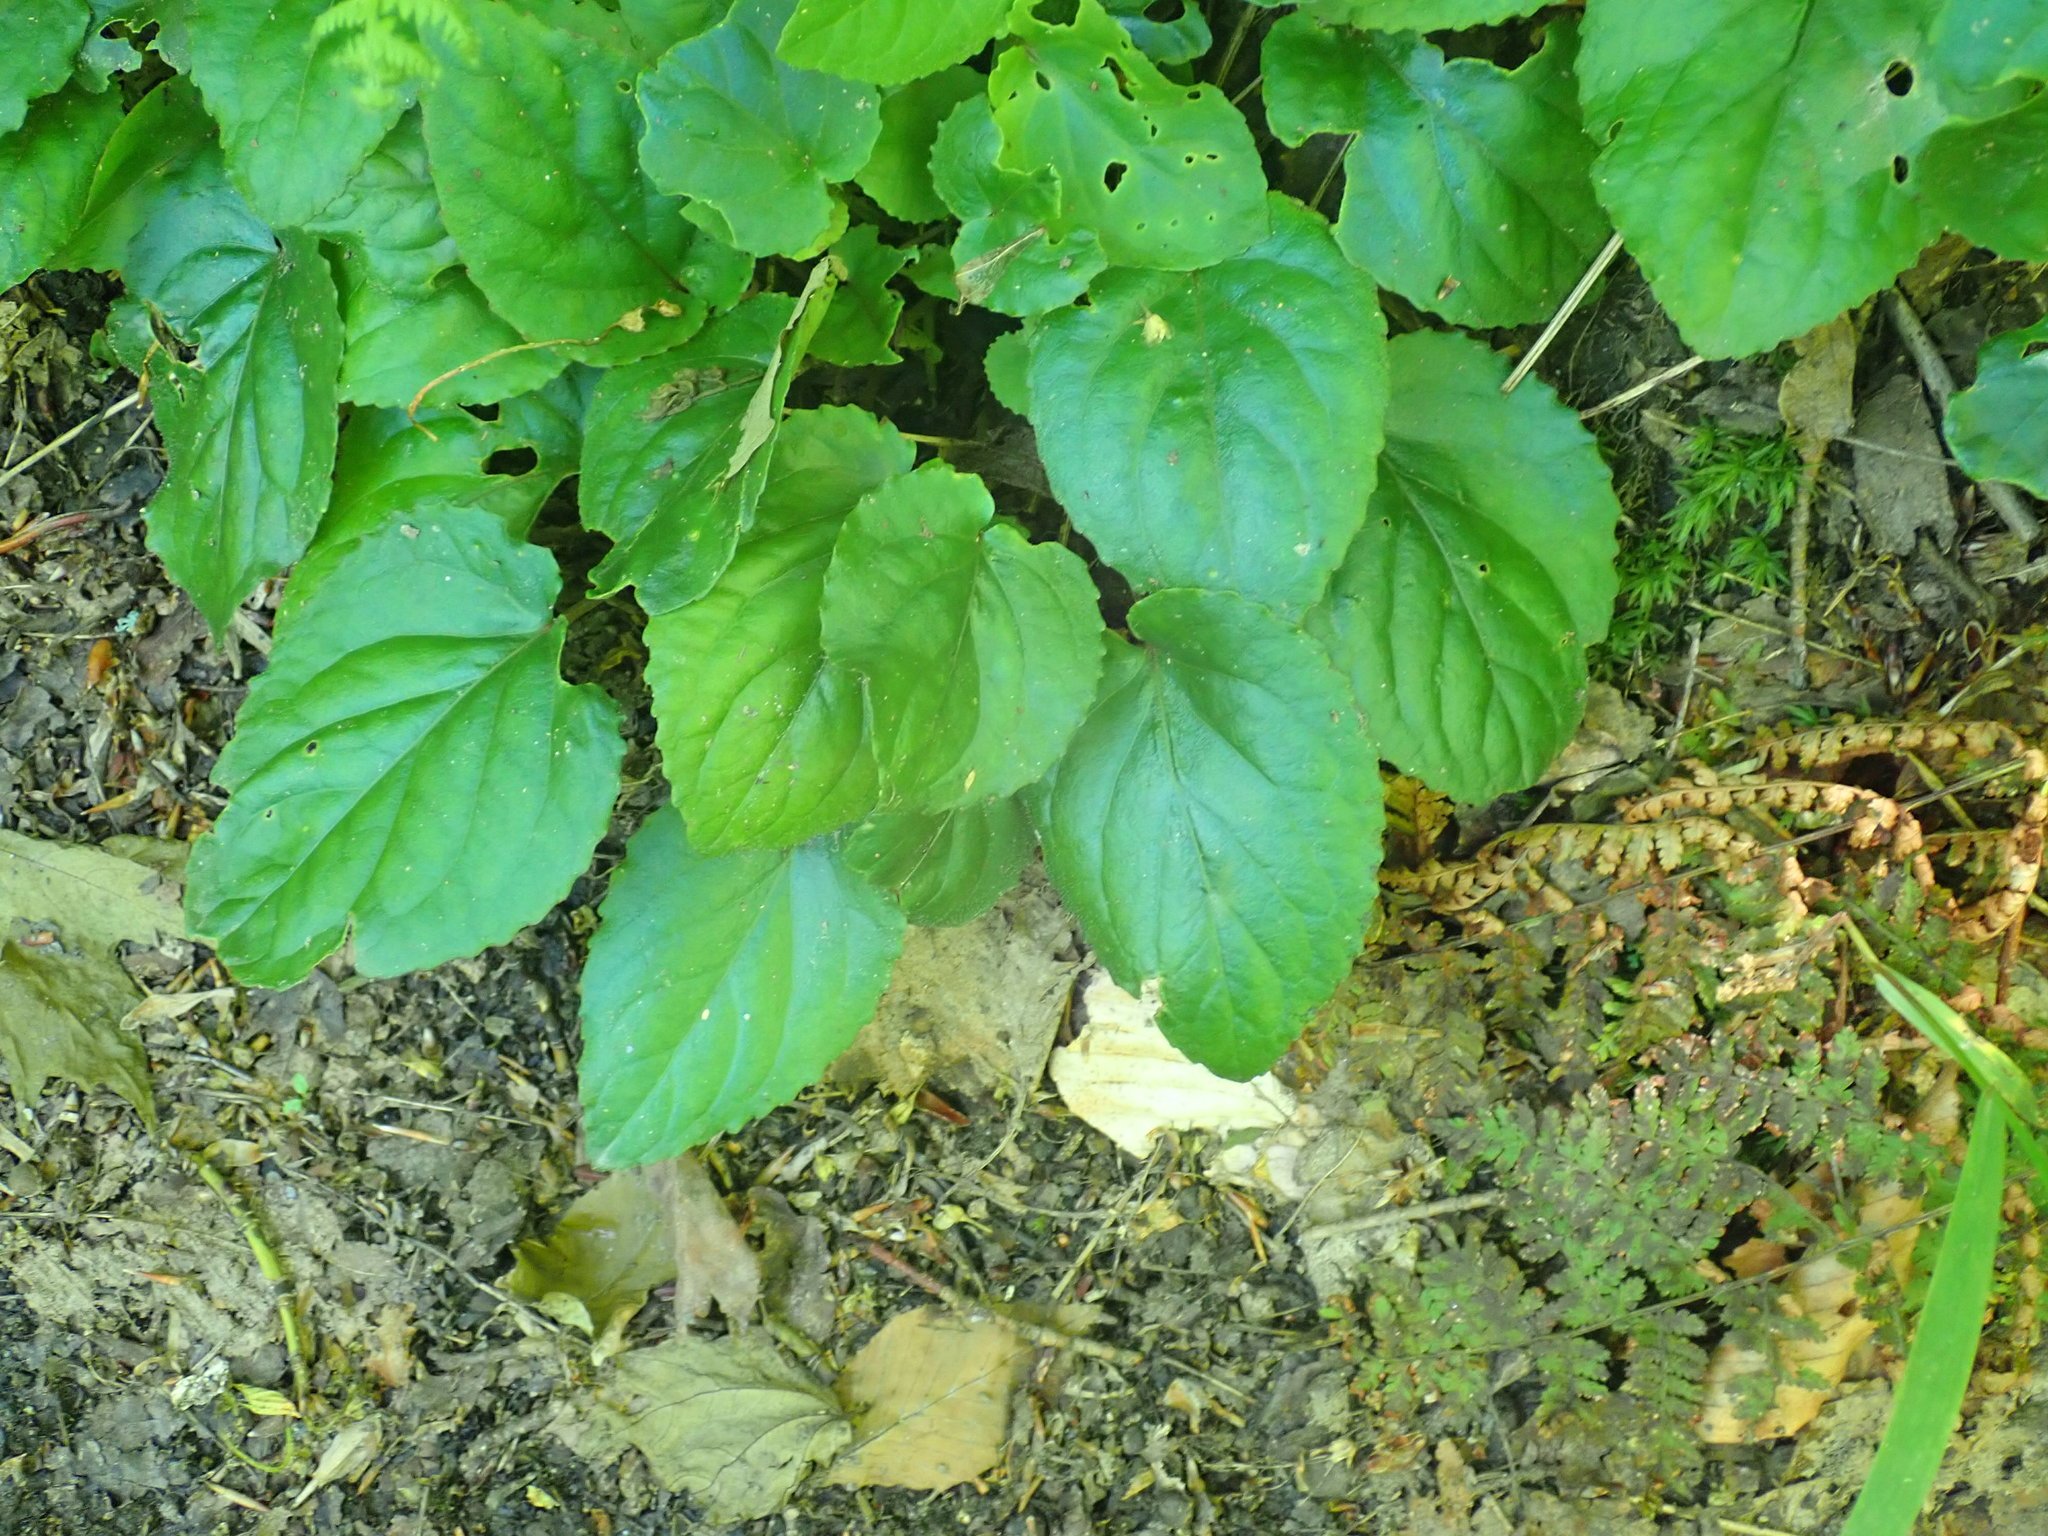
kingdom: Plantae
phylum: Tracheophyta
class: Magnoliopsida
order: Malpighiales
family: Violaceae
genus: Viola
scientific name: Viola rotundifolia
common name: Early yellow violet
